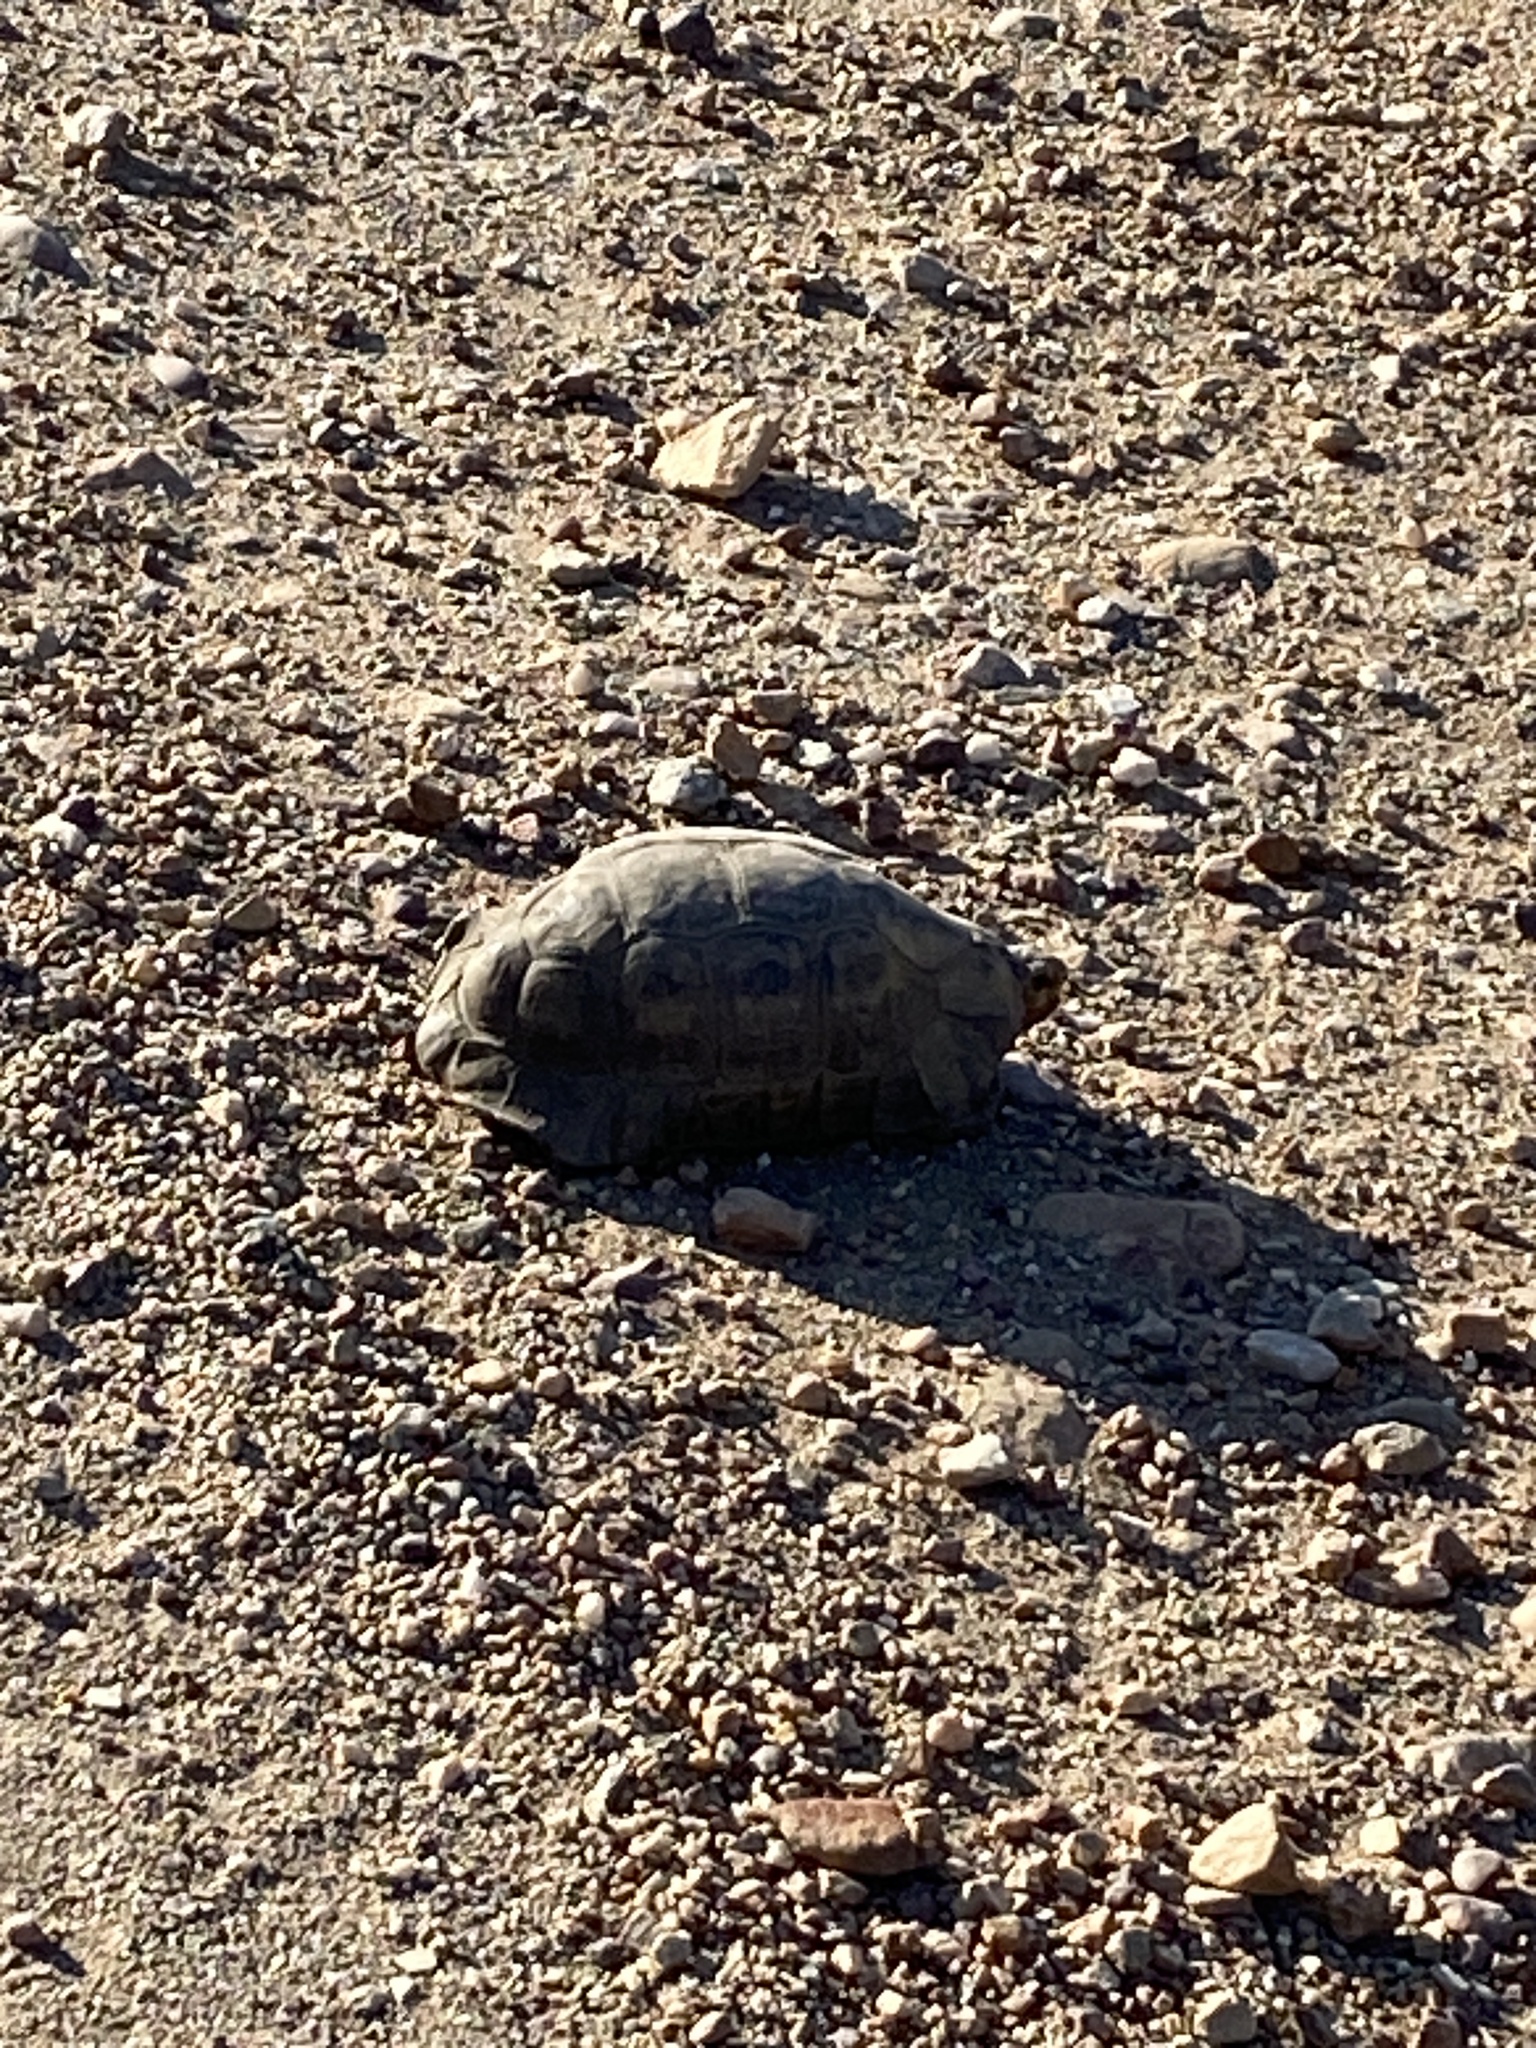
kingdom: Animalia
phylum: Chordata
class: Testudines
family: Testudinidae
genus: Chersina
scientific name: Chersina angulata
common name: South african bowsprit tortoise
